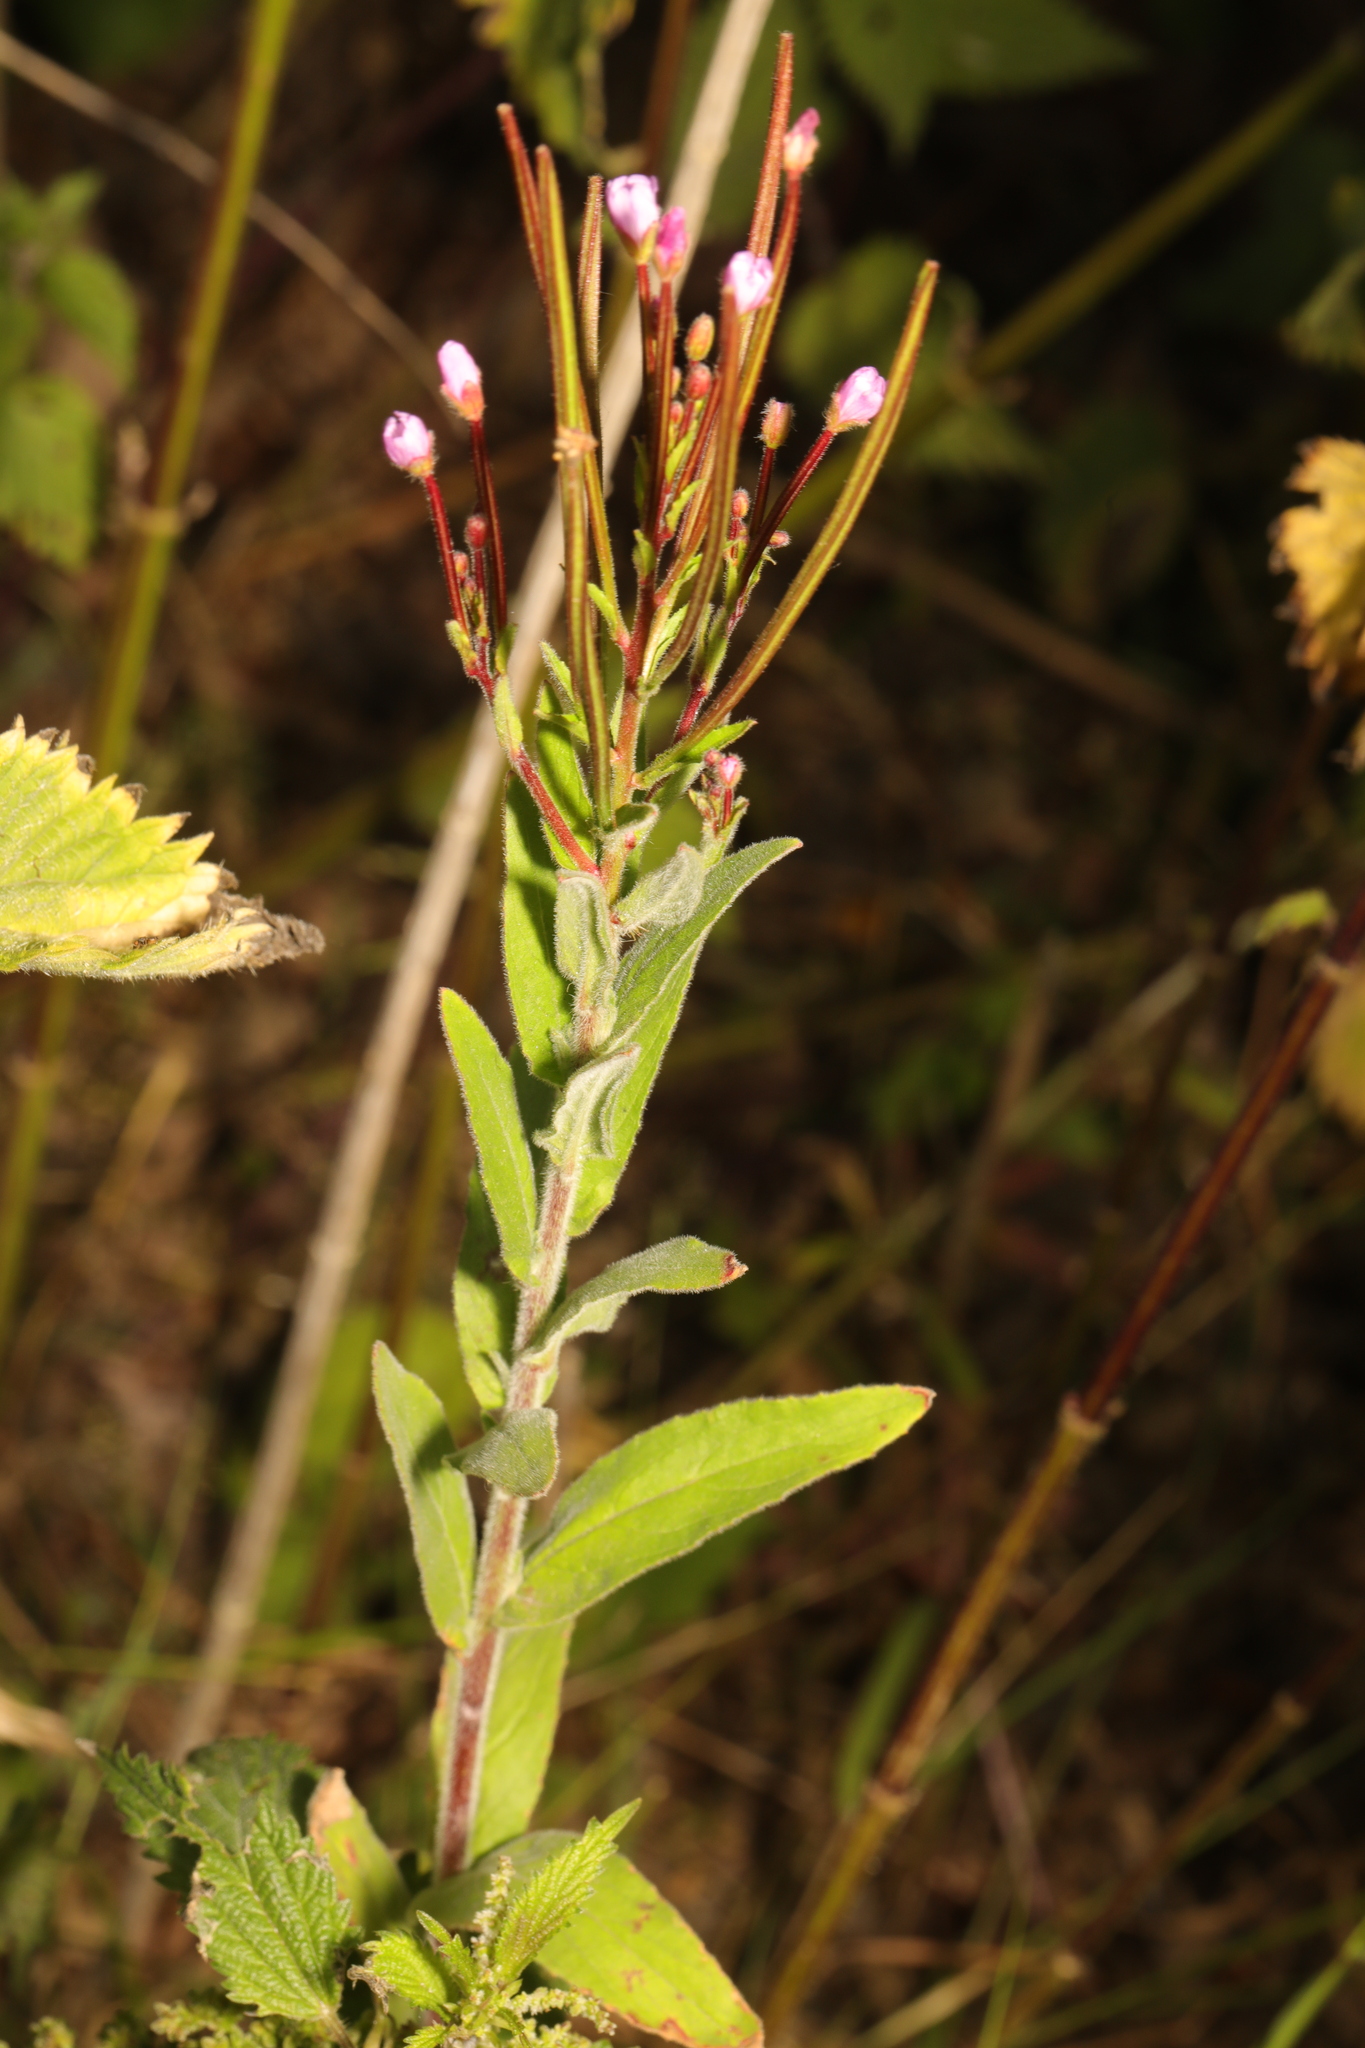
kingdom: Plantae
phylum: Tracheophyta
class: Magnoliopsida
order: Myrtales
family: Onagraceae
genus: Epilobium
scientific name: Epilobium parviflorum
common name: Hoary willowherb
